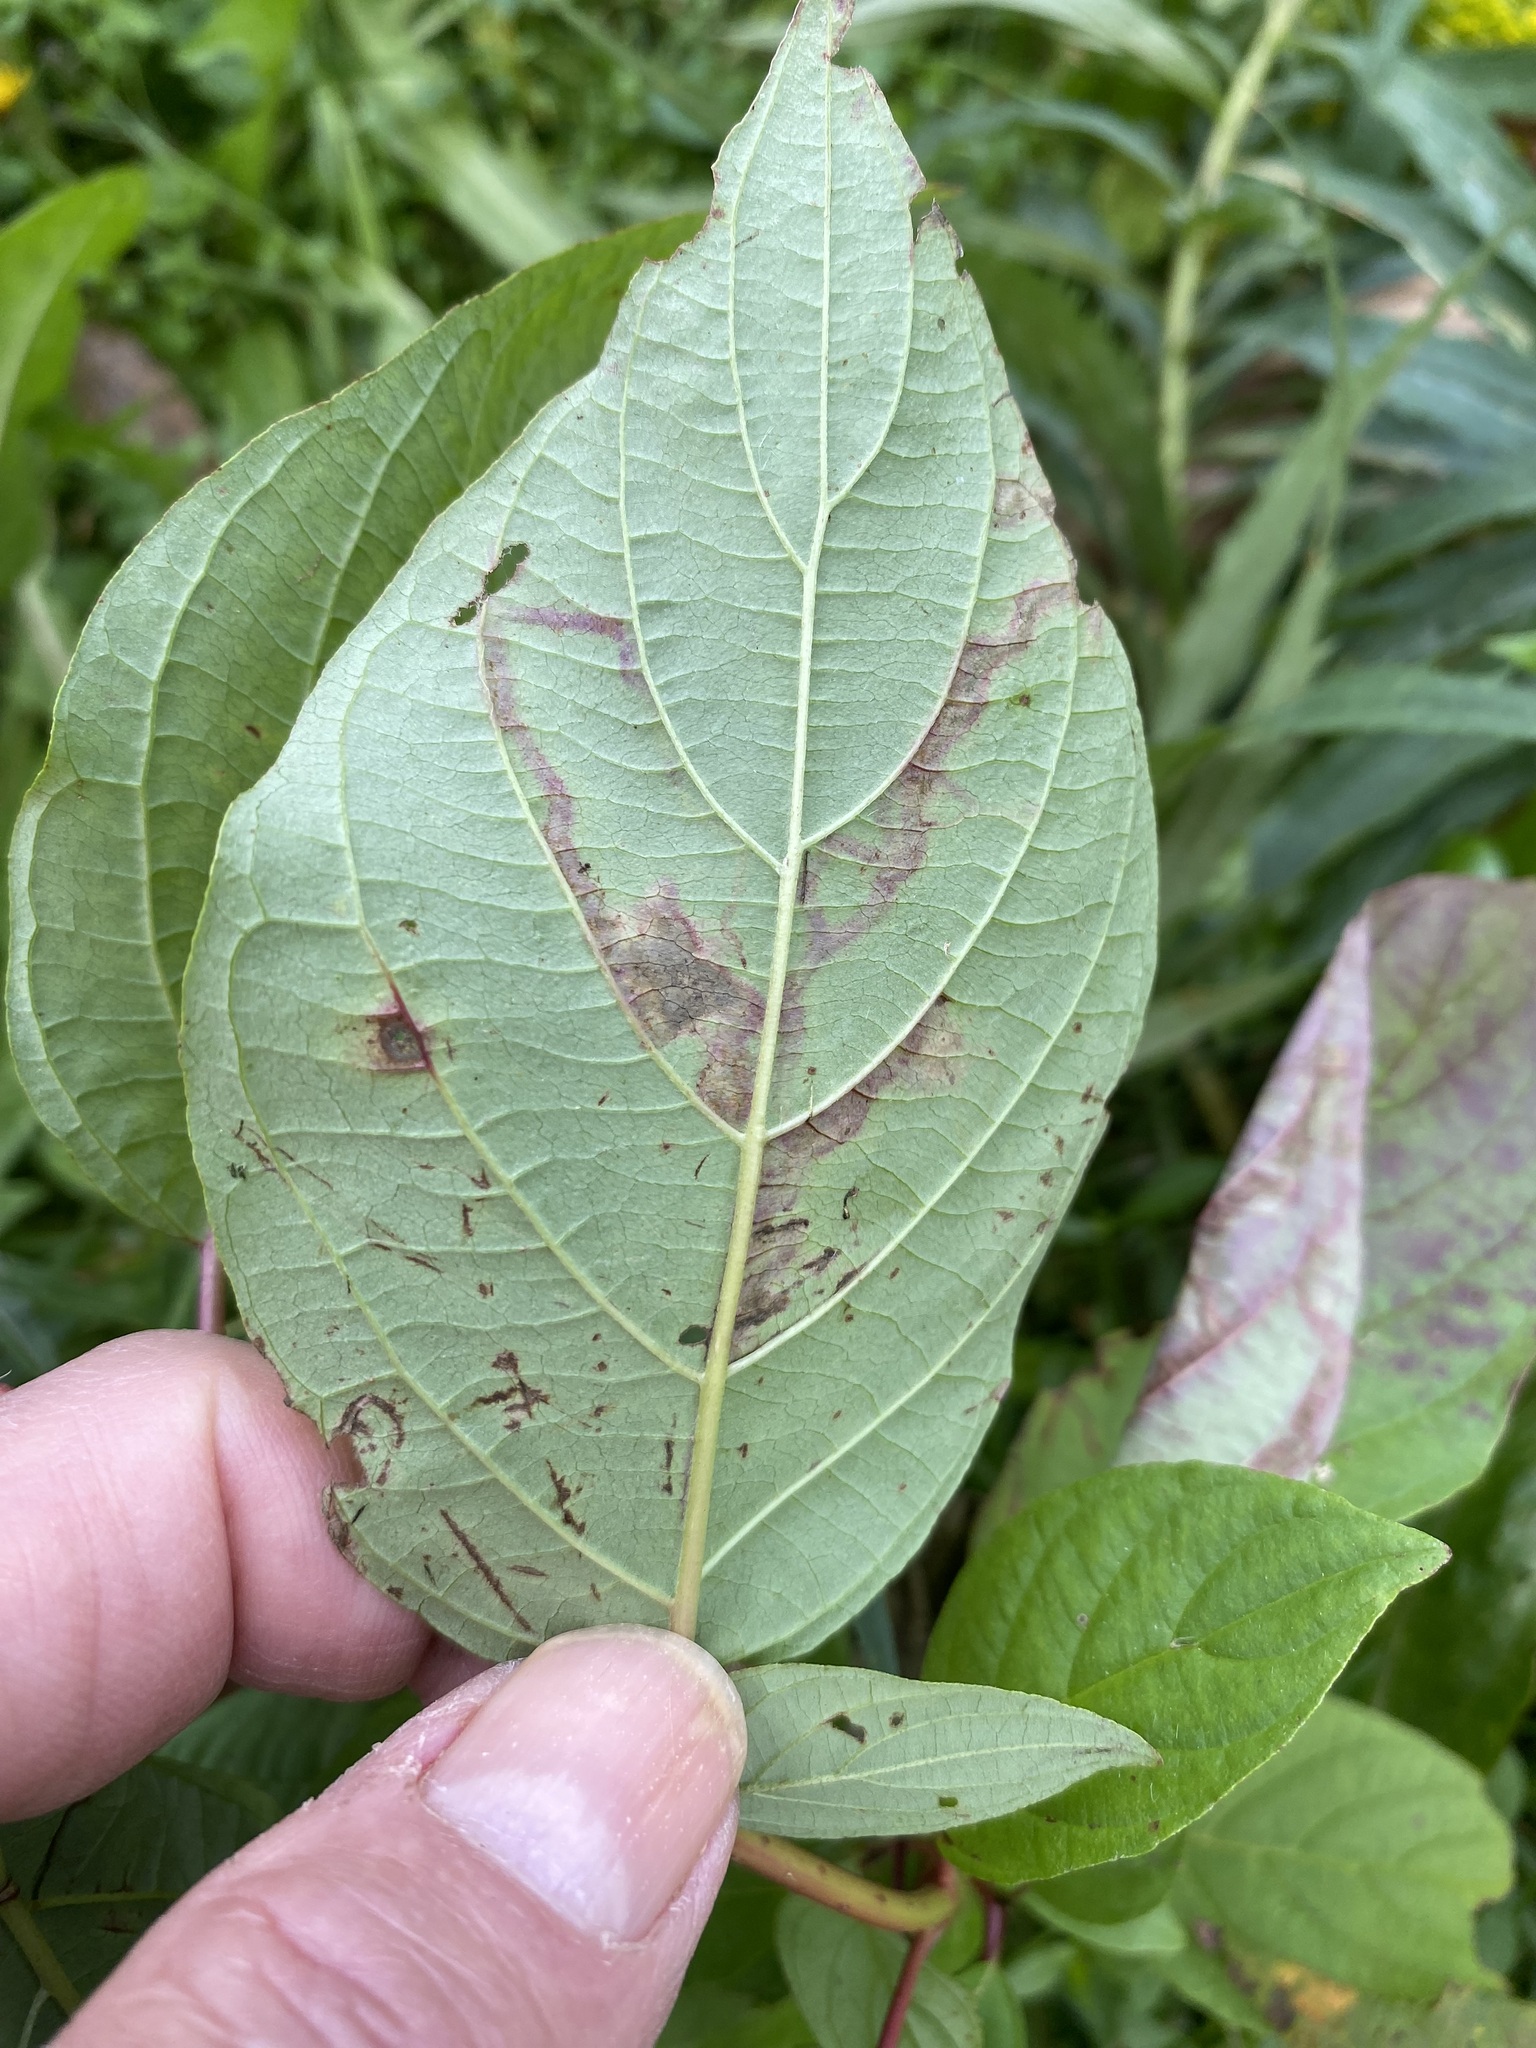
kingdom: Animalia
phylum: Arthropoda
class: Insecta
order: Diptera
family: Agromyzidae
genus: Phytomyza
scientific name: Phytomyza agromyzina
